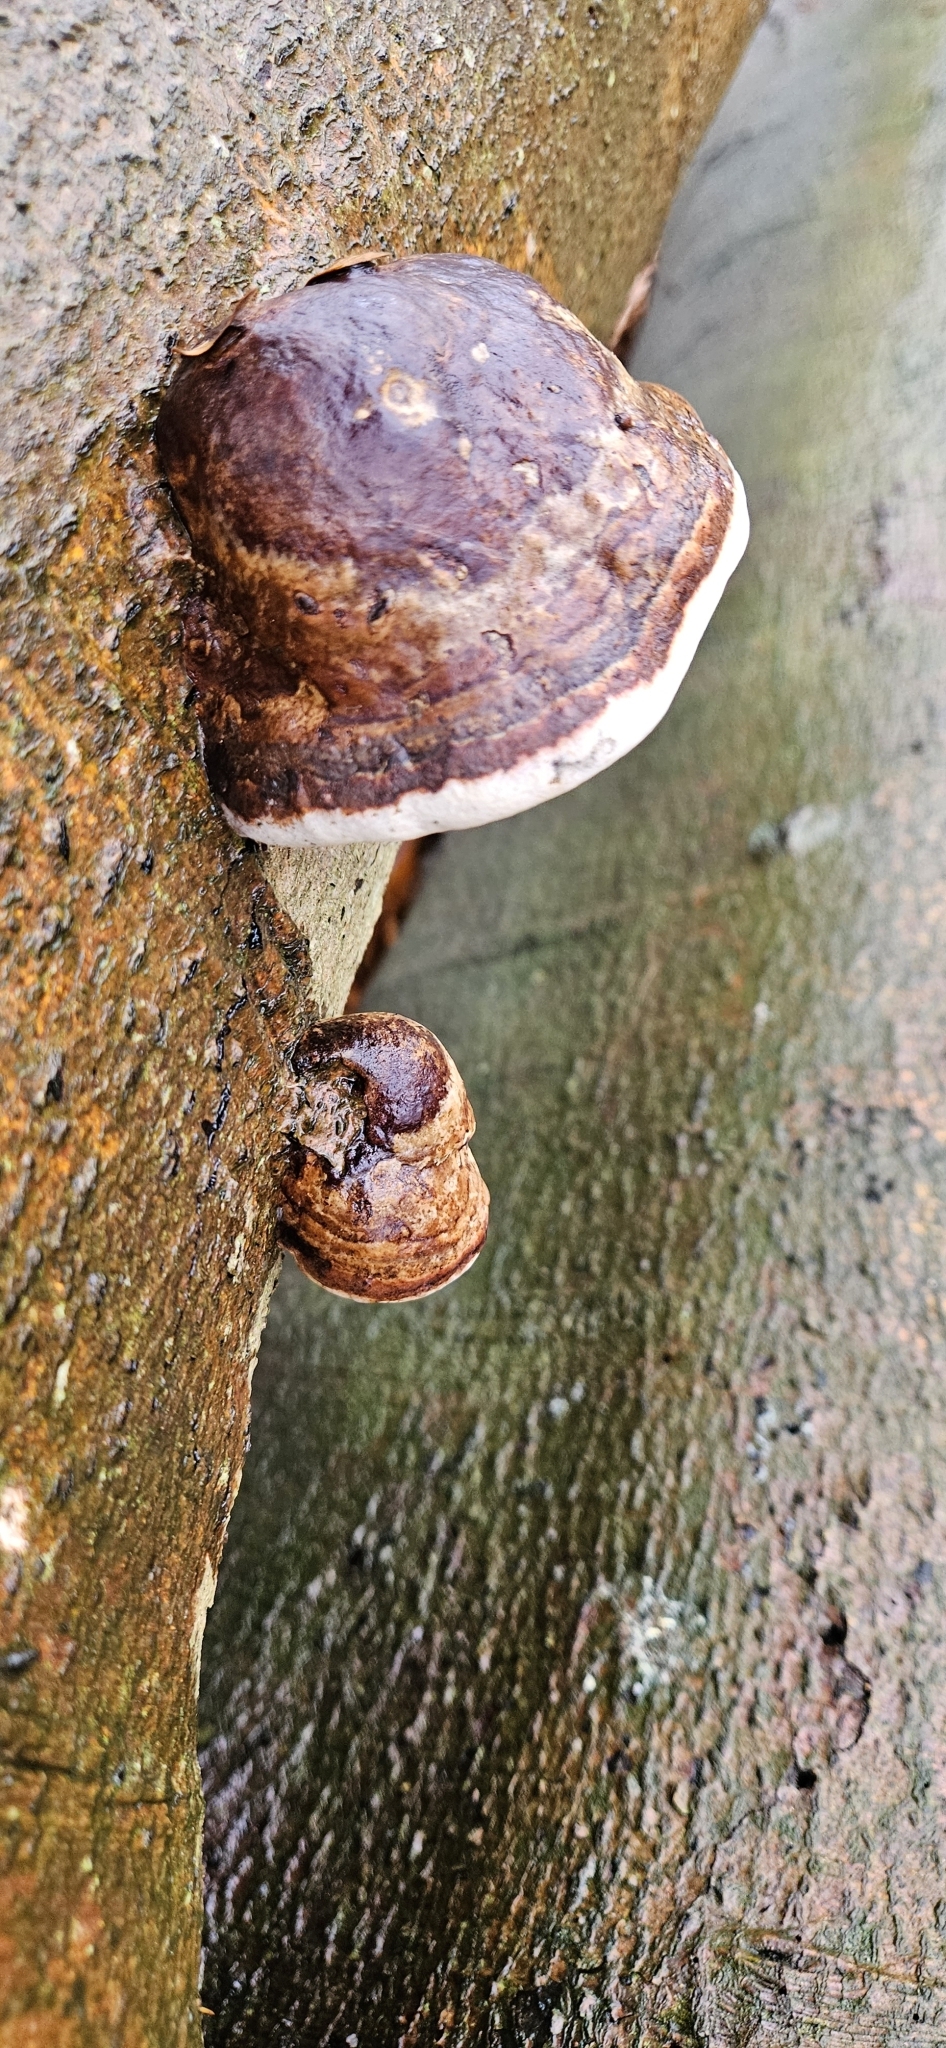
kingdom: Fungi
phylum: Basidiomycota
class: Agaricomycetes
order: Polyporales
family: Polyporaceae
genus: Fomes
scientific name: Fomes fomentarius
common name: Hoof fungus
